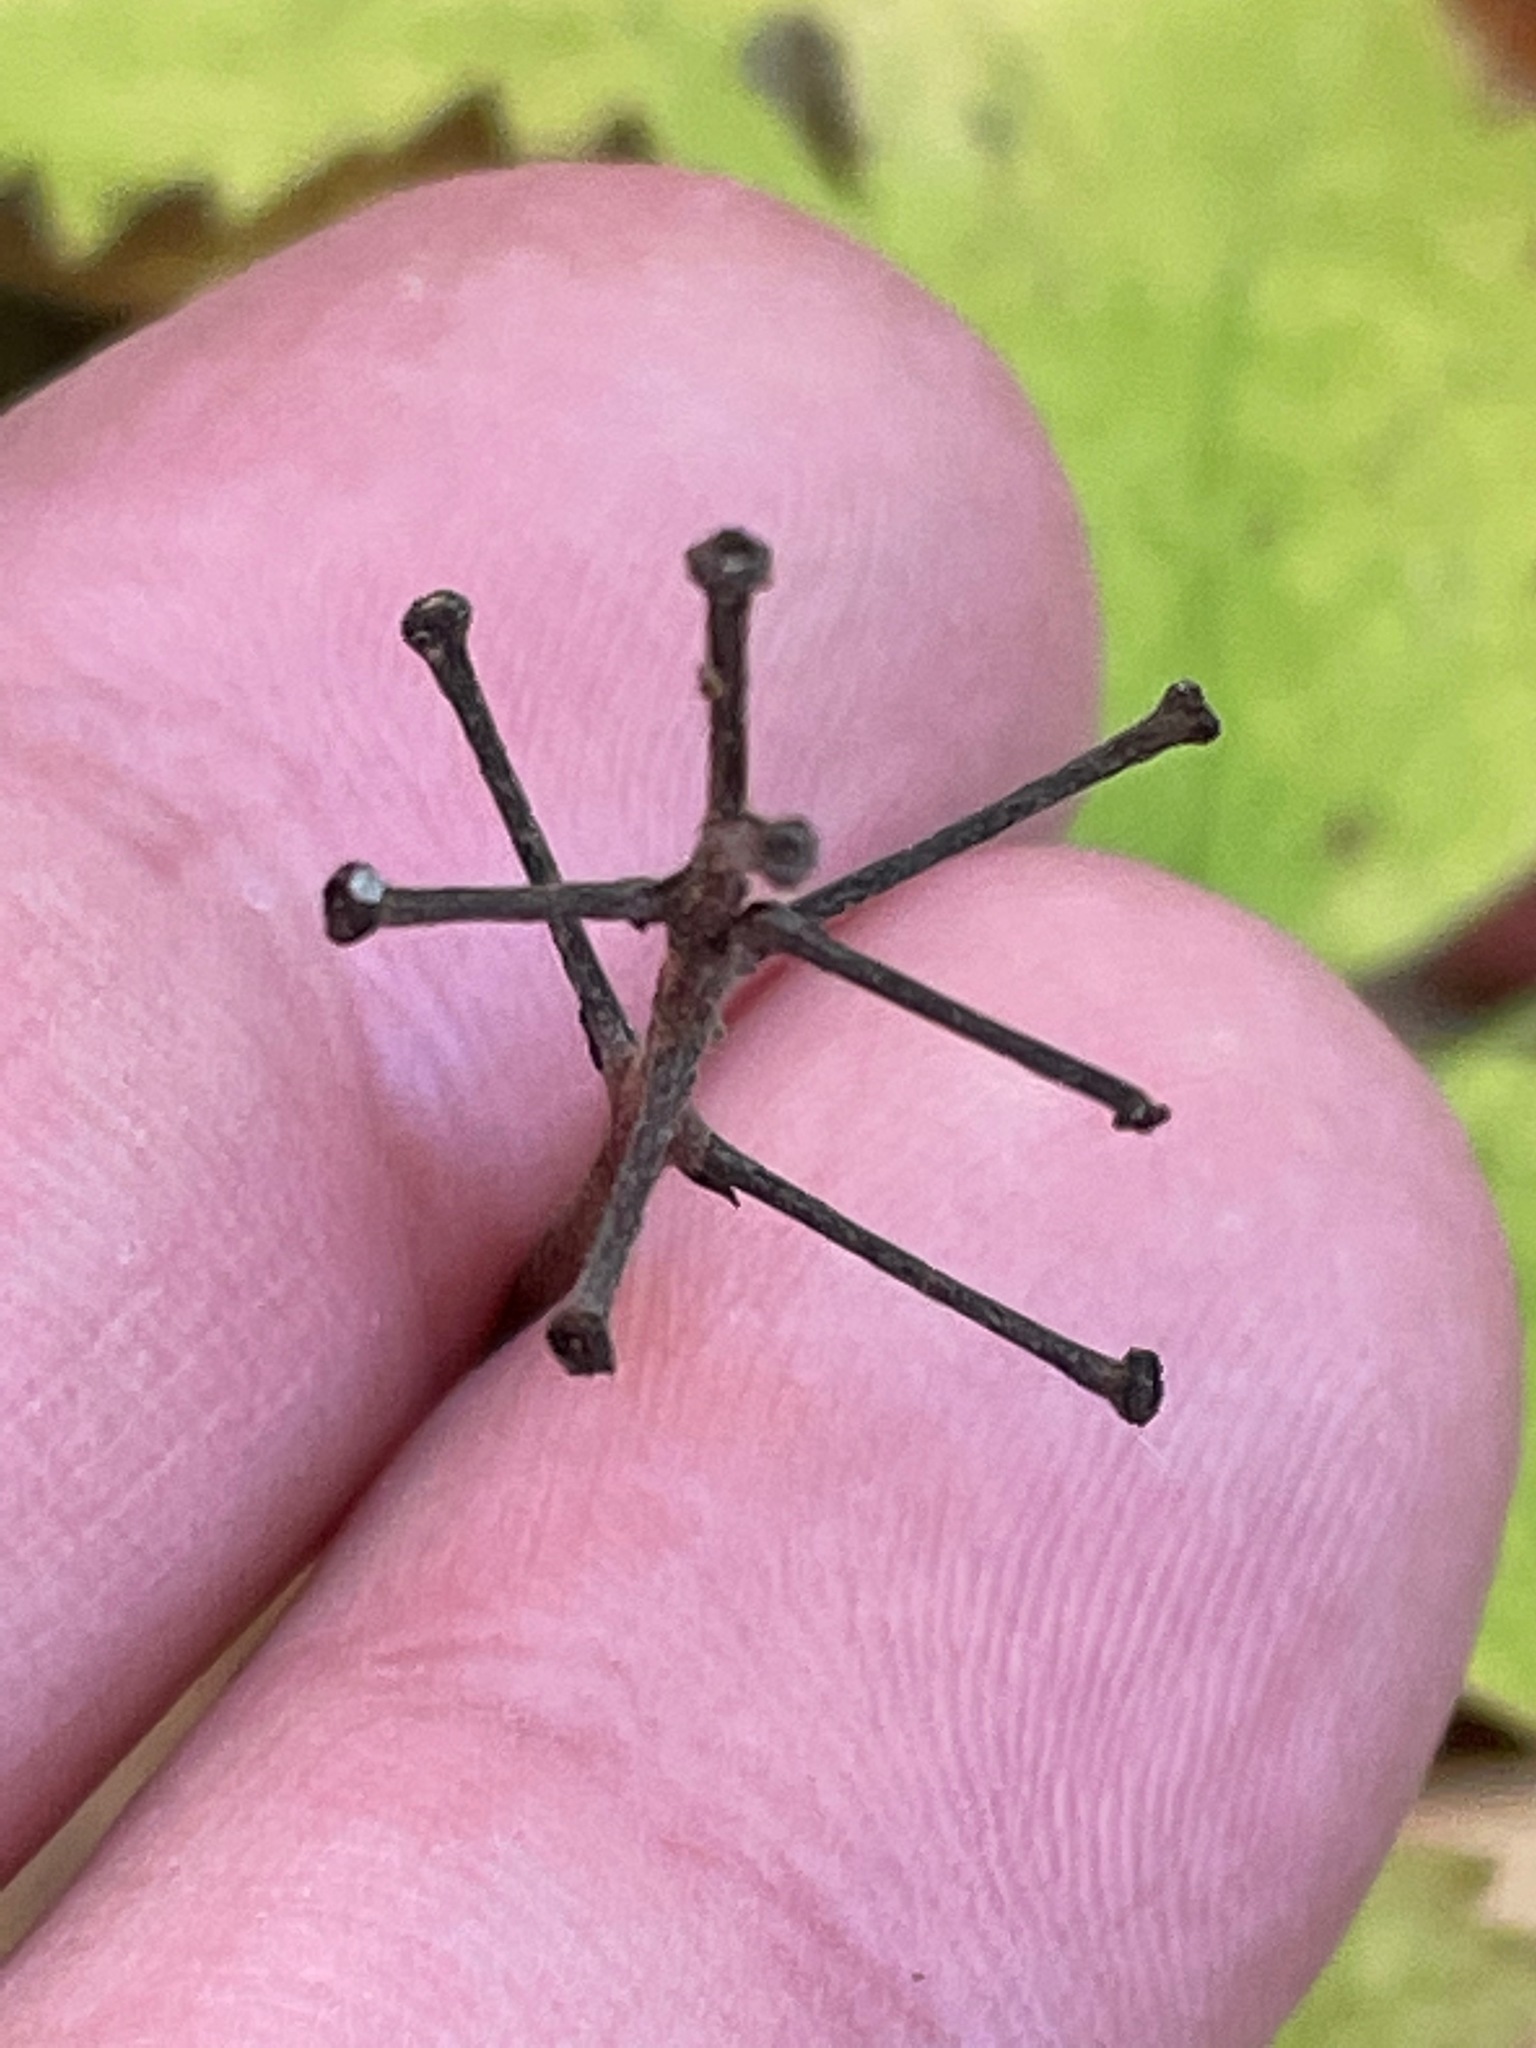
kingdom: Plantae
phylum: Tracheophyta
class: Magnoliopsida
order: Ranunculales
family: Ranunculaceae
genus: Actaea
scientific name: Actaea rubra
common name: Red baneberry
